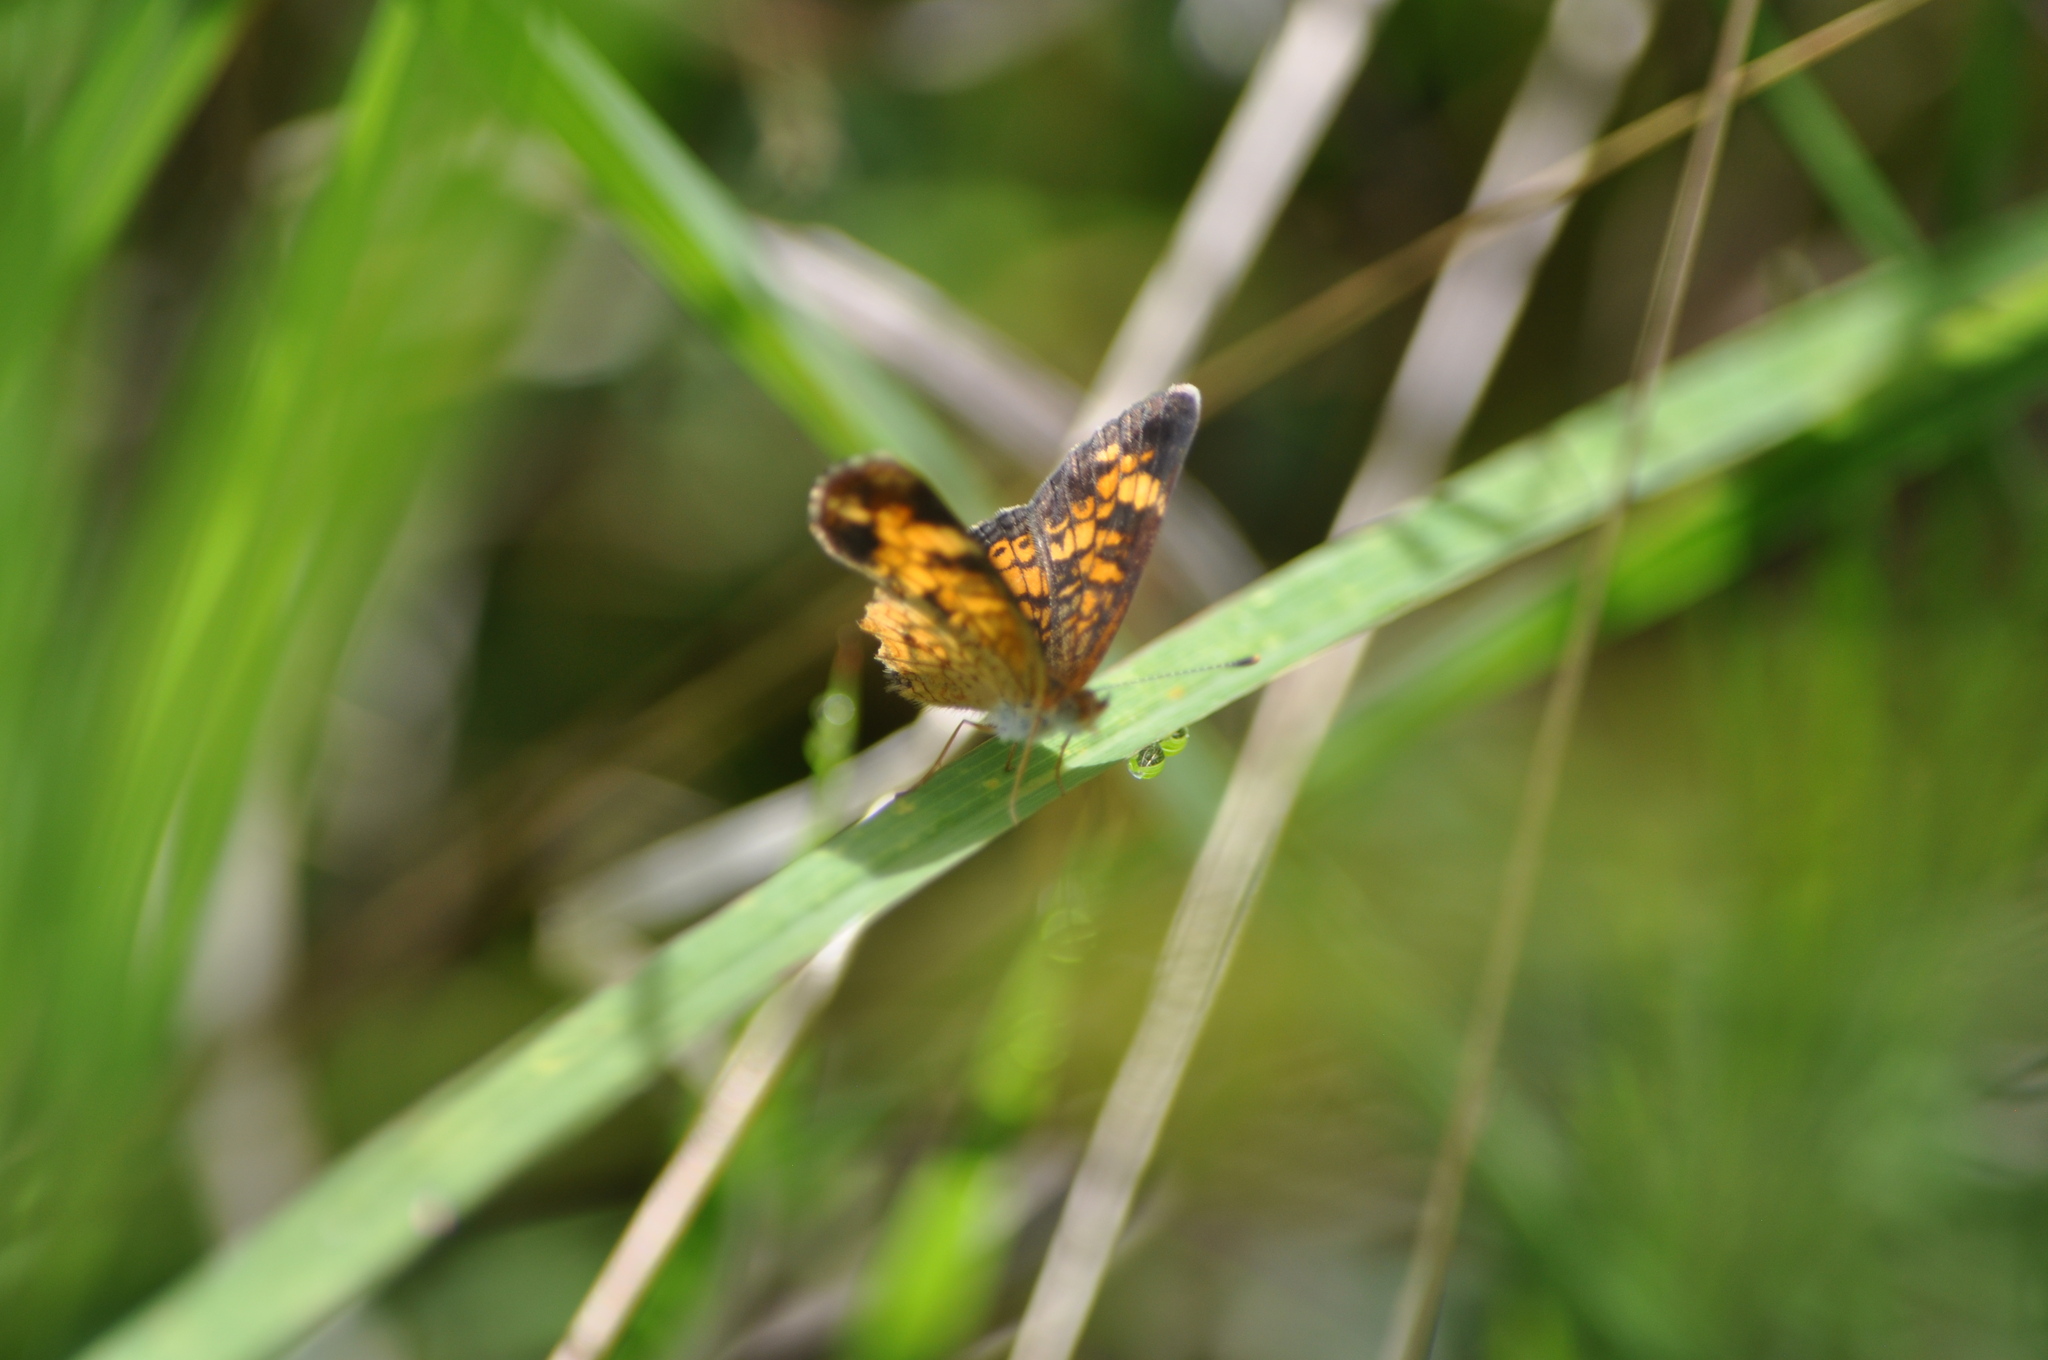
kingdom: Animalia
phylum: Arthropoda
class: Insecta
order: Lepidoptera
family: Nymphalidae
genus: Phyciodes
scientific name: Phyciodes tharos
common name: Pearl crescent
